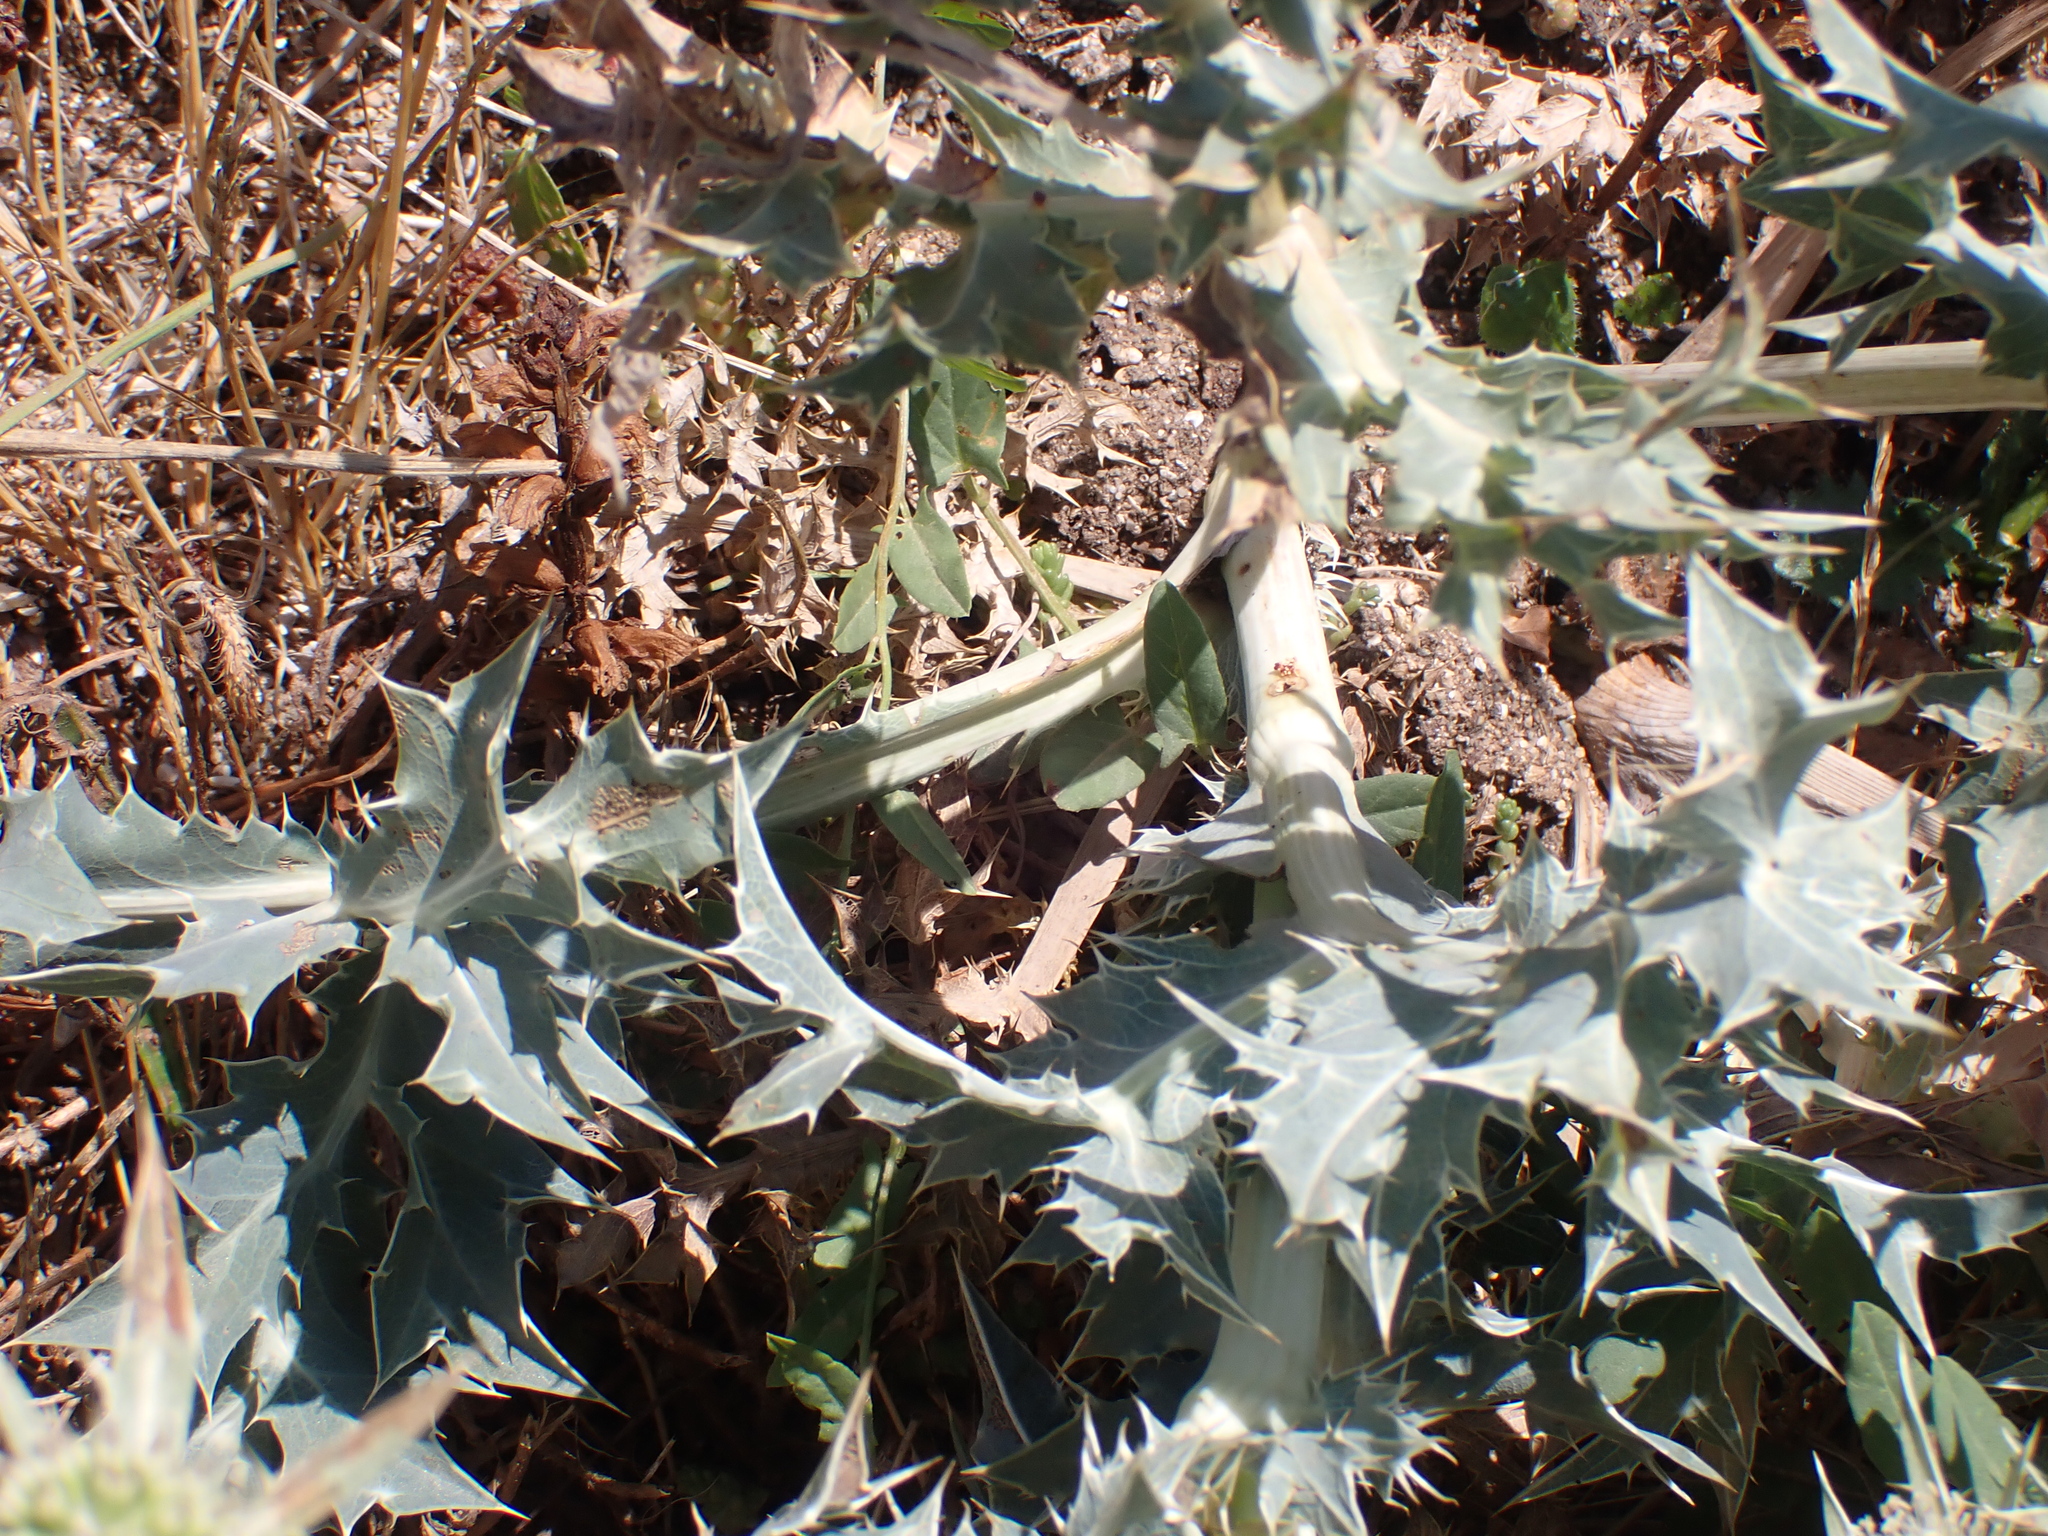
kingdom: Plantae
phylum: Tracheophyta
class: Magnoliopsida
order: Apiales
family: Apiaceae
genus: Eryngium
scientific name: Eryngium campestre
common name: Field eryngo
